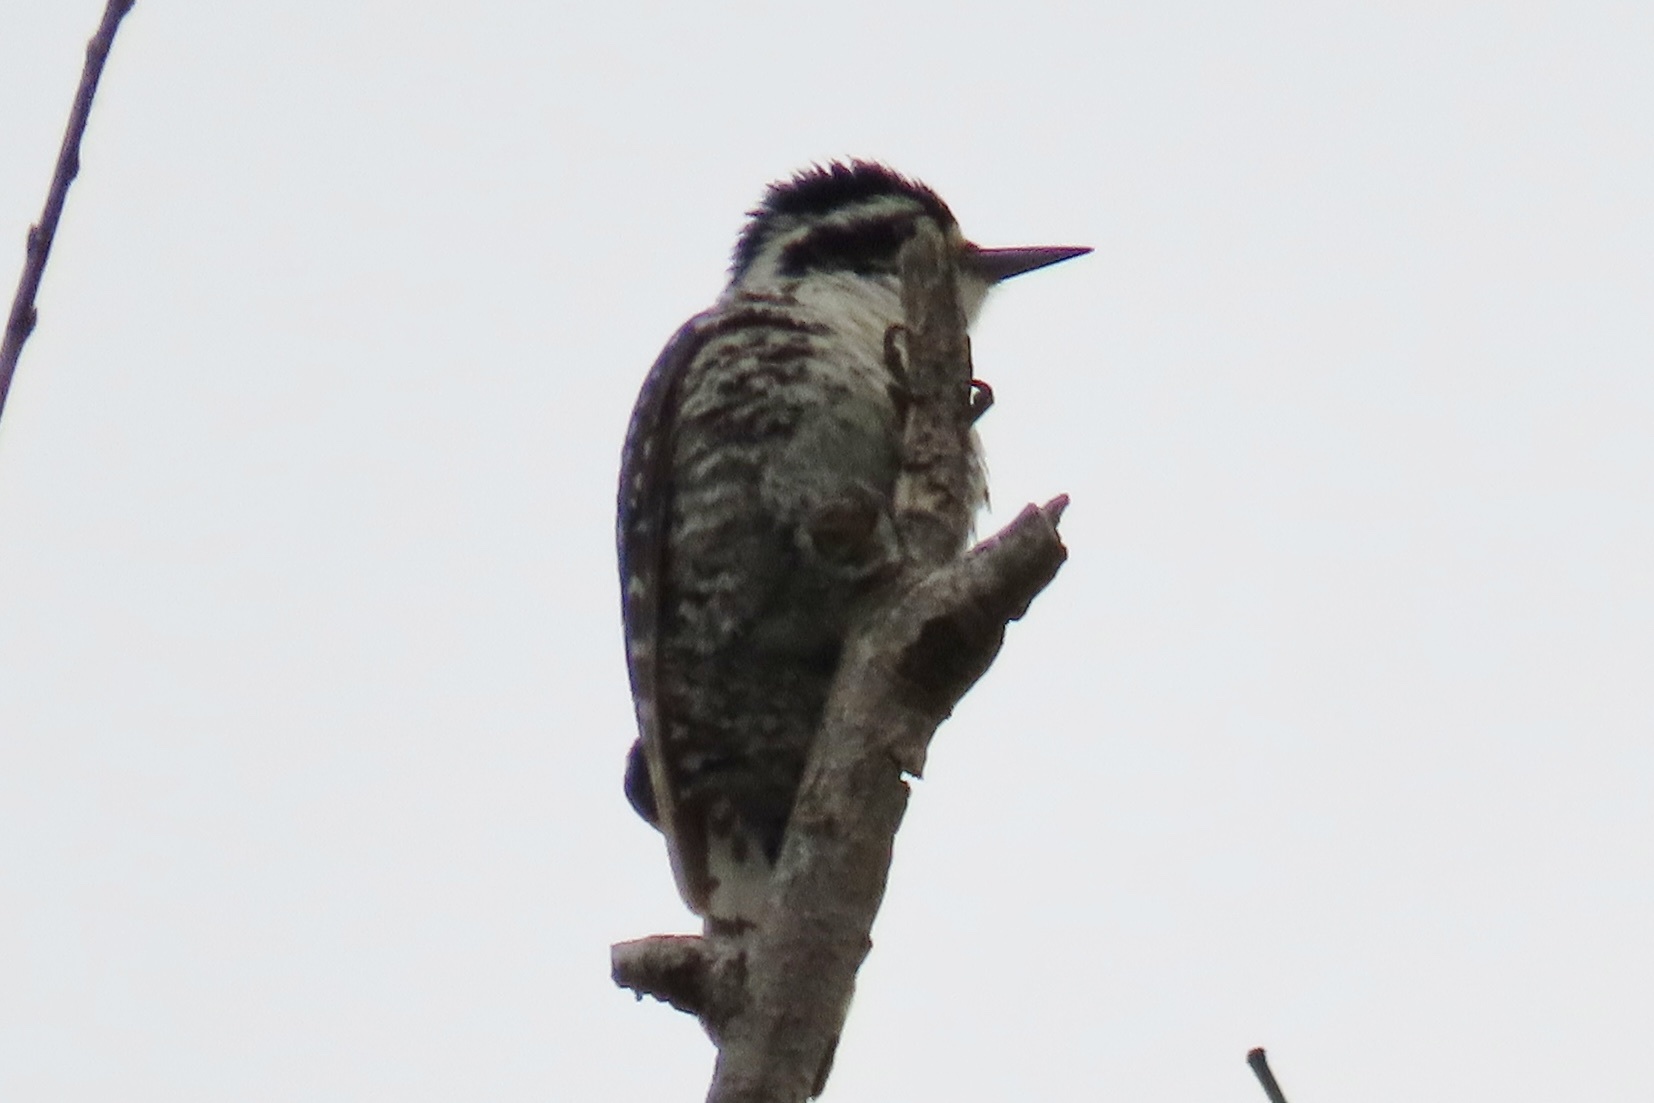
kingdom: Animalia
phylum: Chordata
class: Aves
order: Piciformes
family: Picidae
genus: Dryobates
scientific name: Dryobates nuttallii
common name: Nuttall's woodpecker
